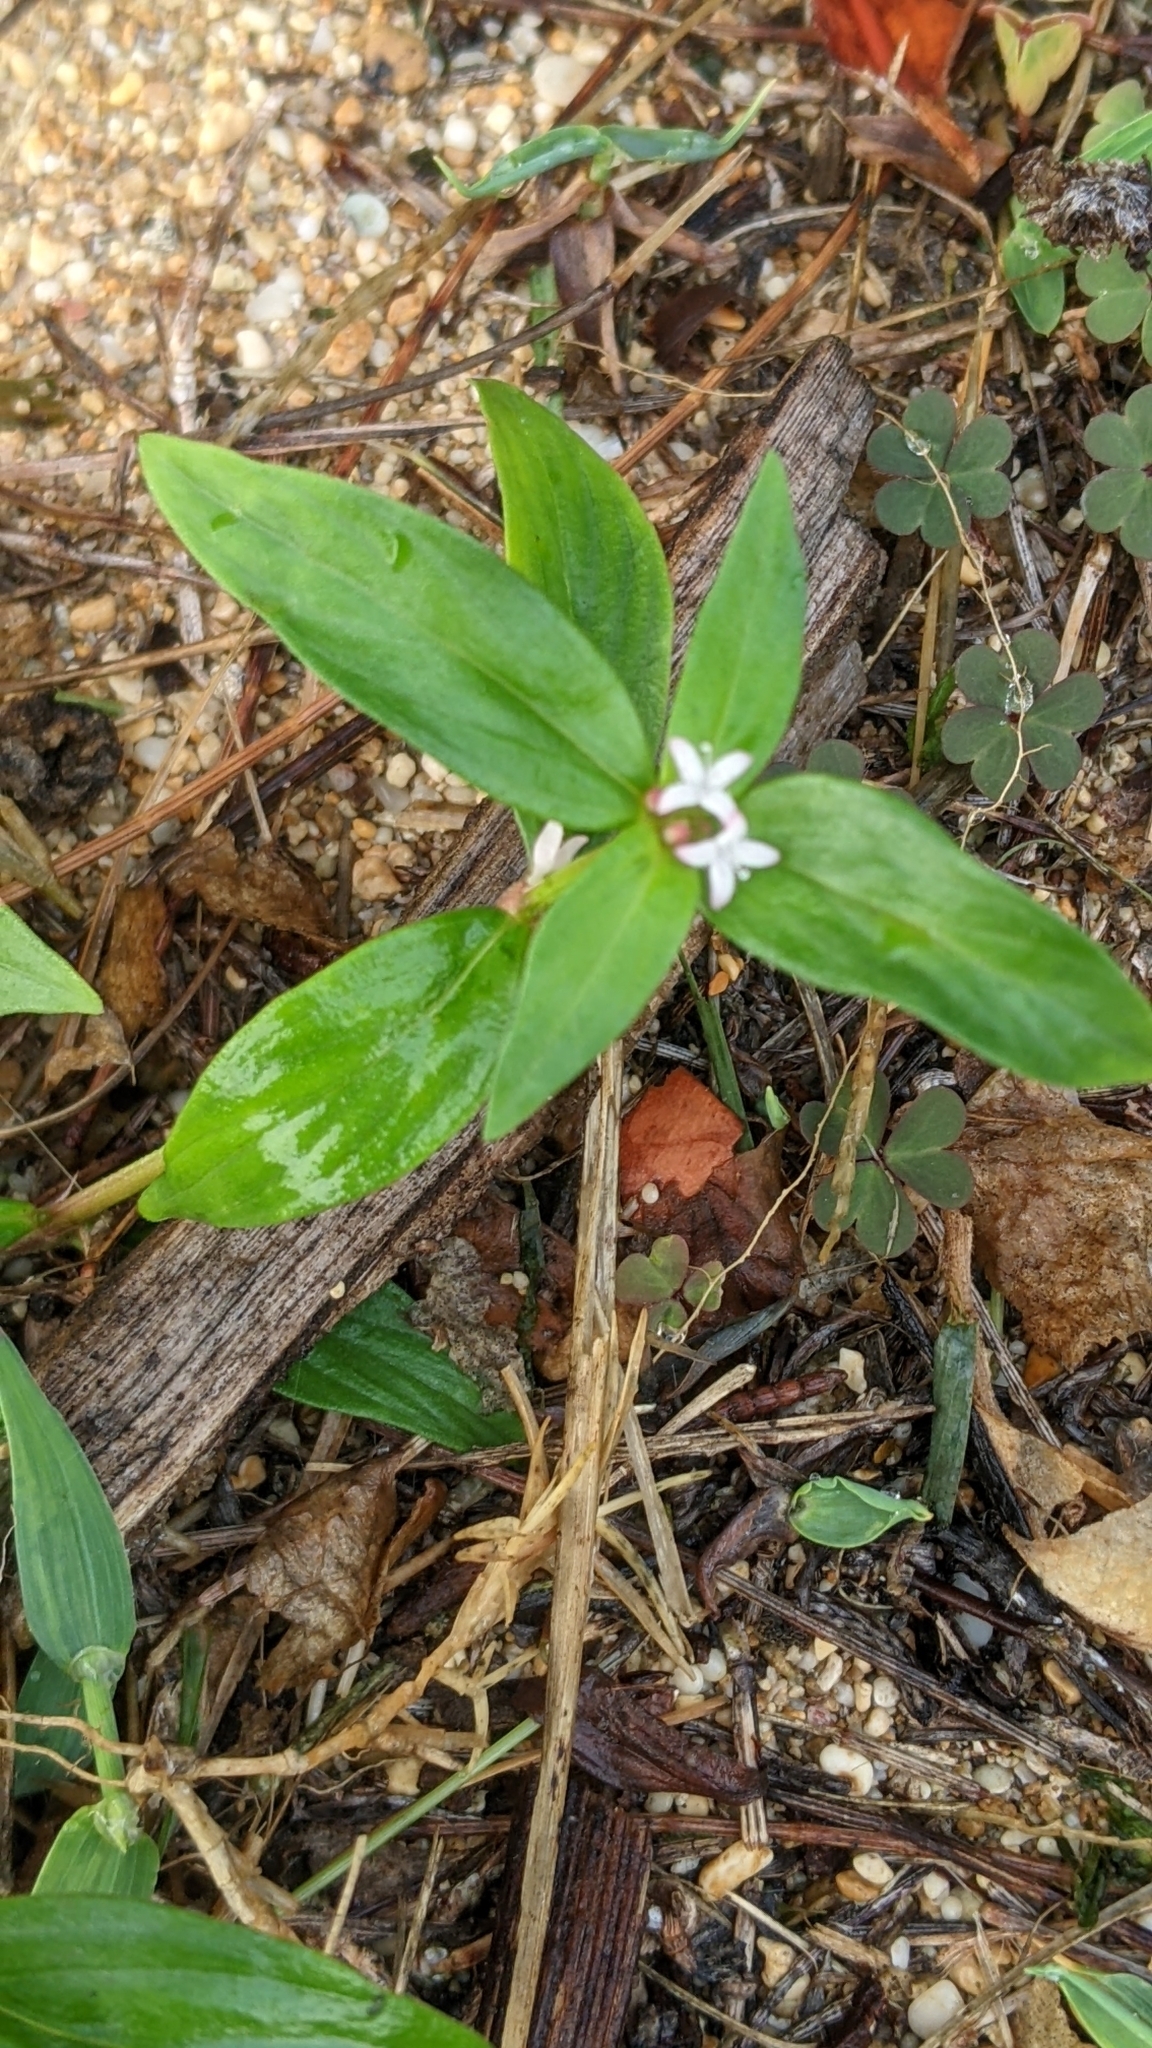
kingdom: Plantae
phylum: Tracheophyta
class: Magnoliopsida
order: Gentianales
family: Rubiaceae
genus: Spermacoce
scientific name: Spermacoce remota
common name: Woodland false buttonweed
